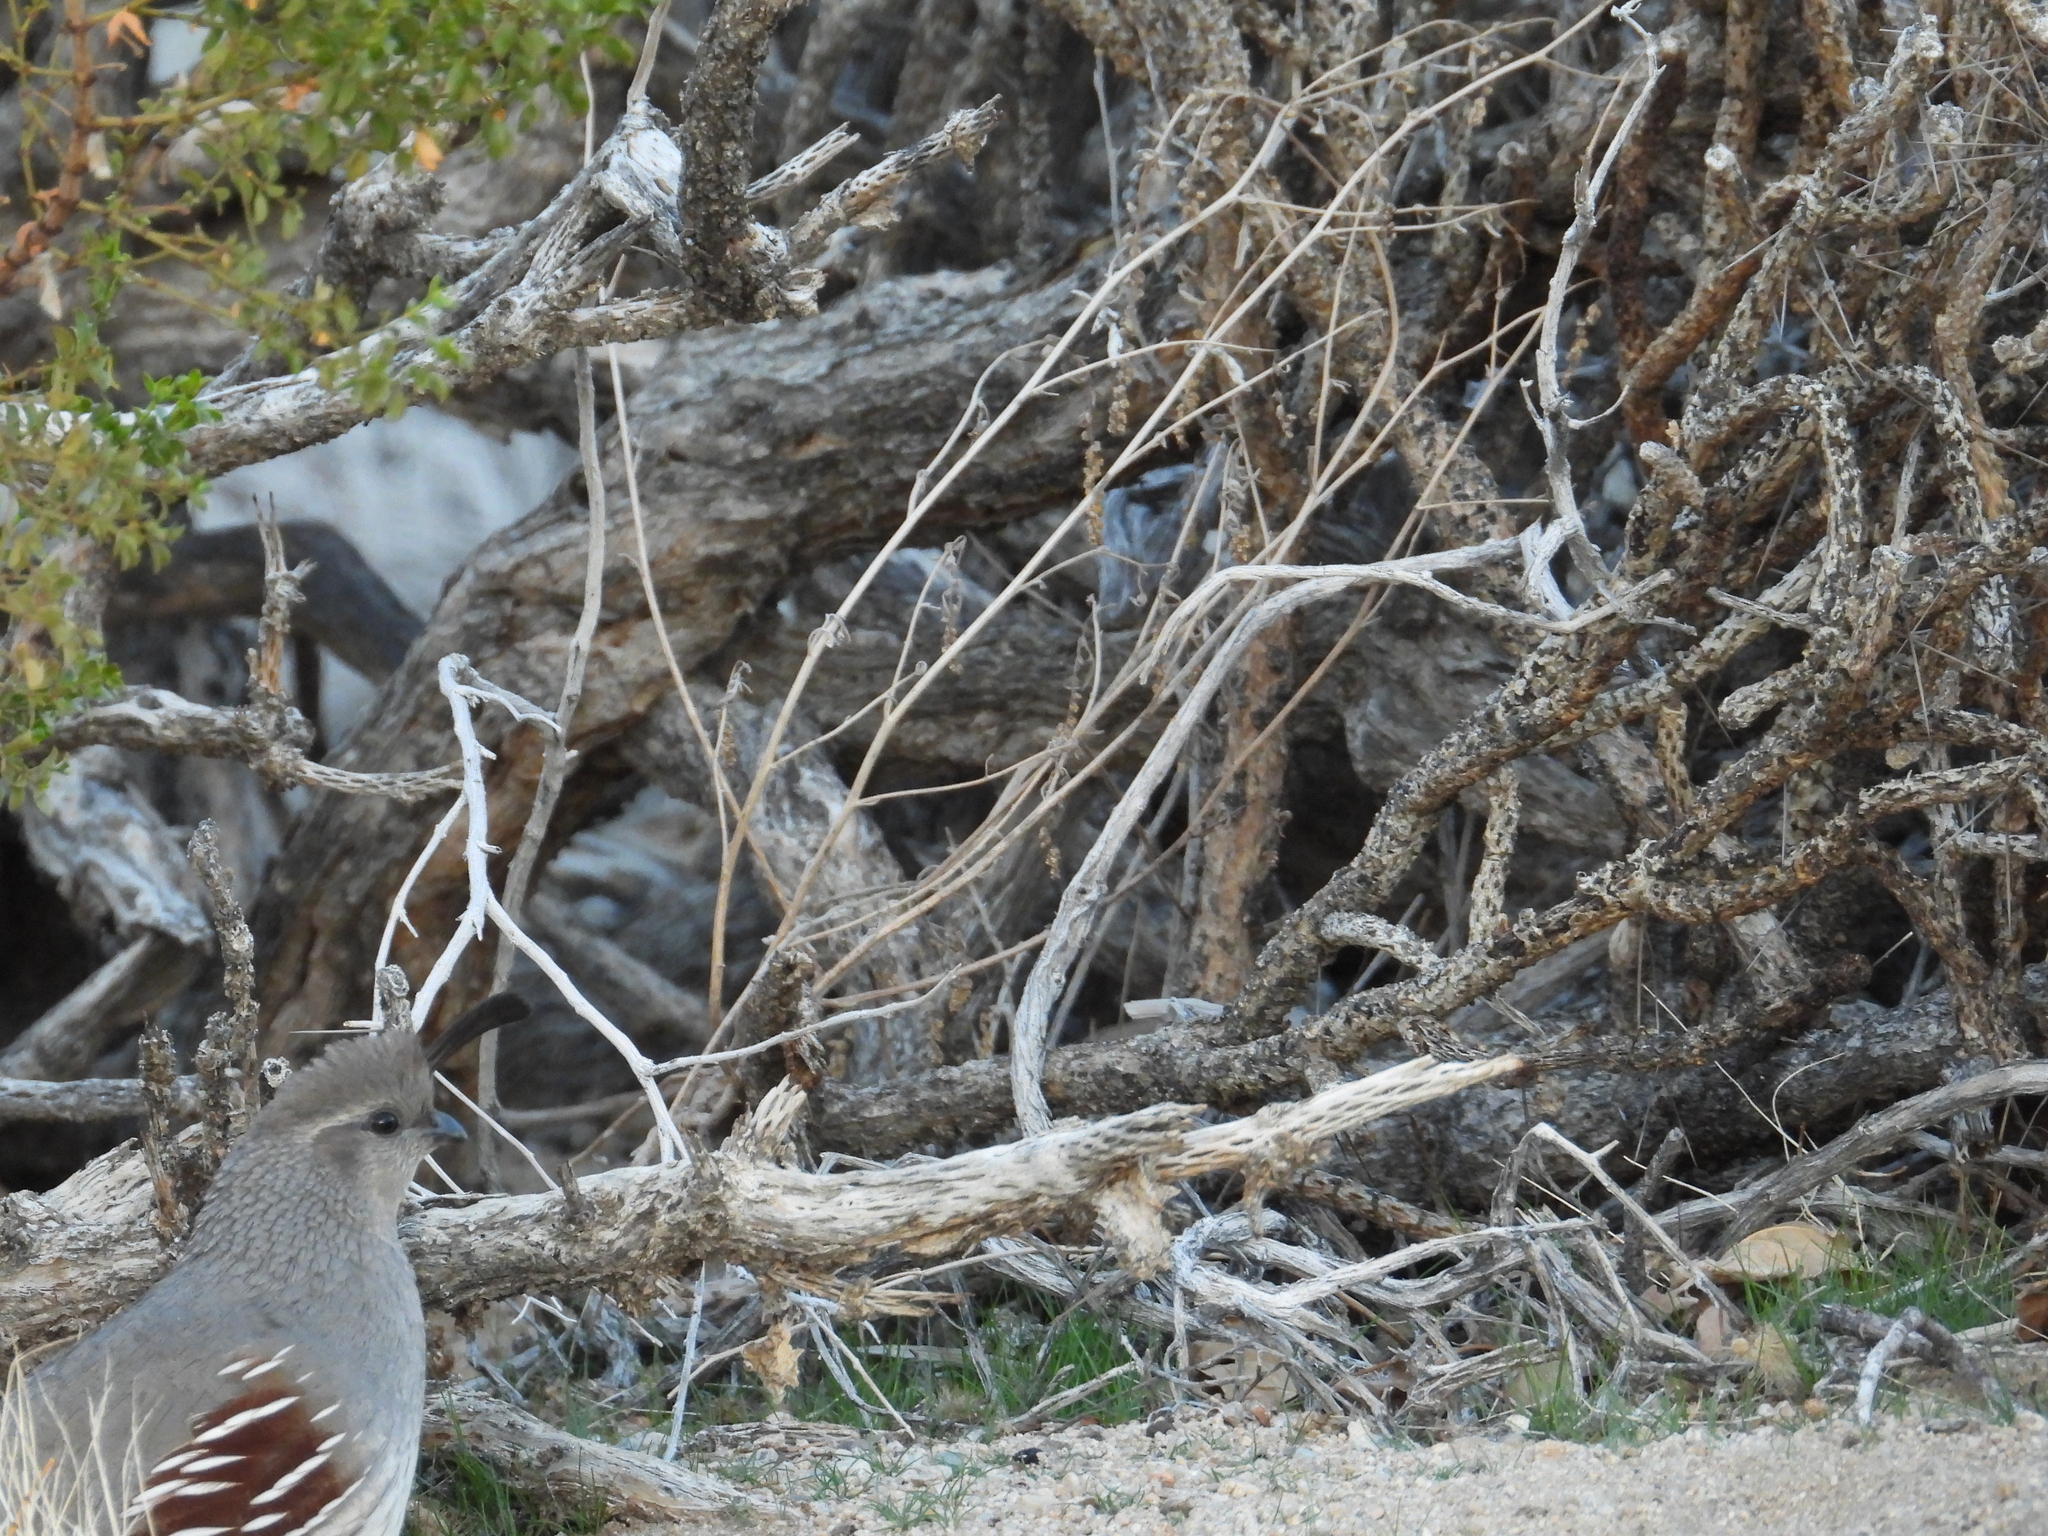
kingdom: Animalia
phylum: Chordata
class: Aves
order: Galliformes
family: Odontophoridae
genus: Callipepla
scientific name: Callipepla gambelii
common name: Gambel's quail
